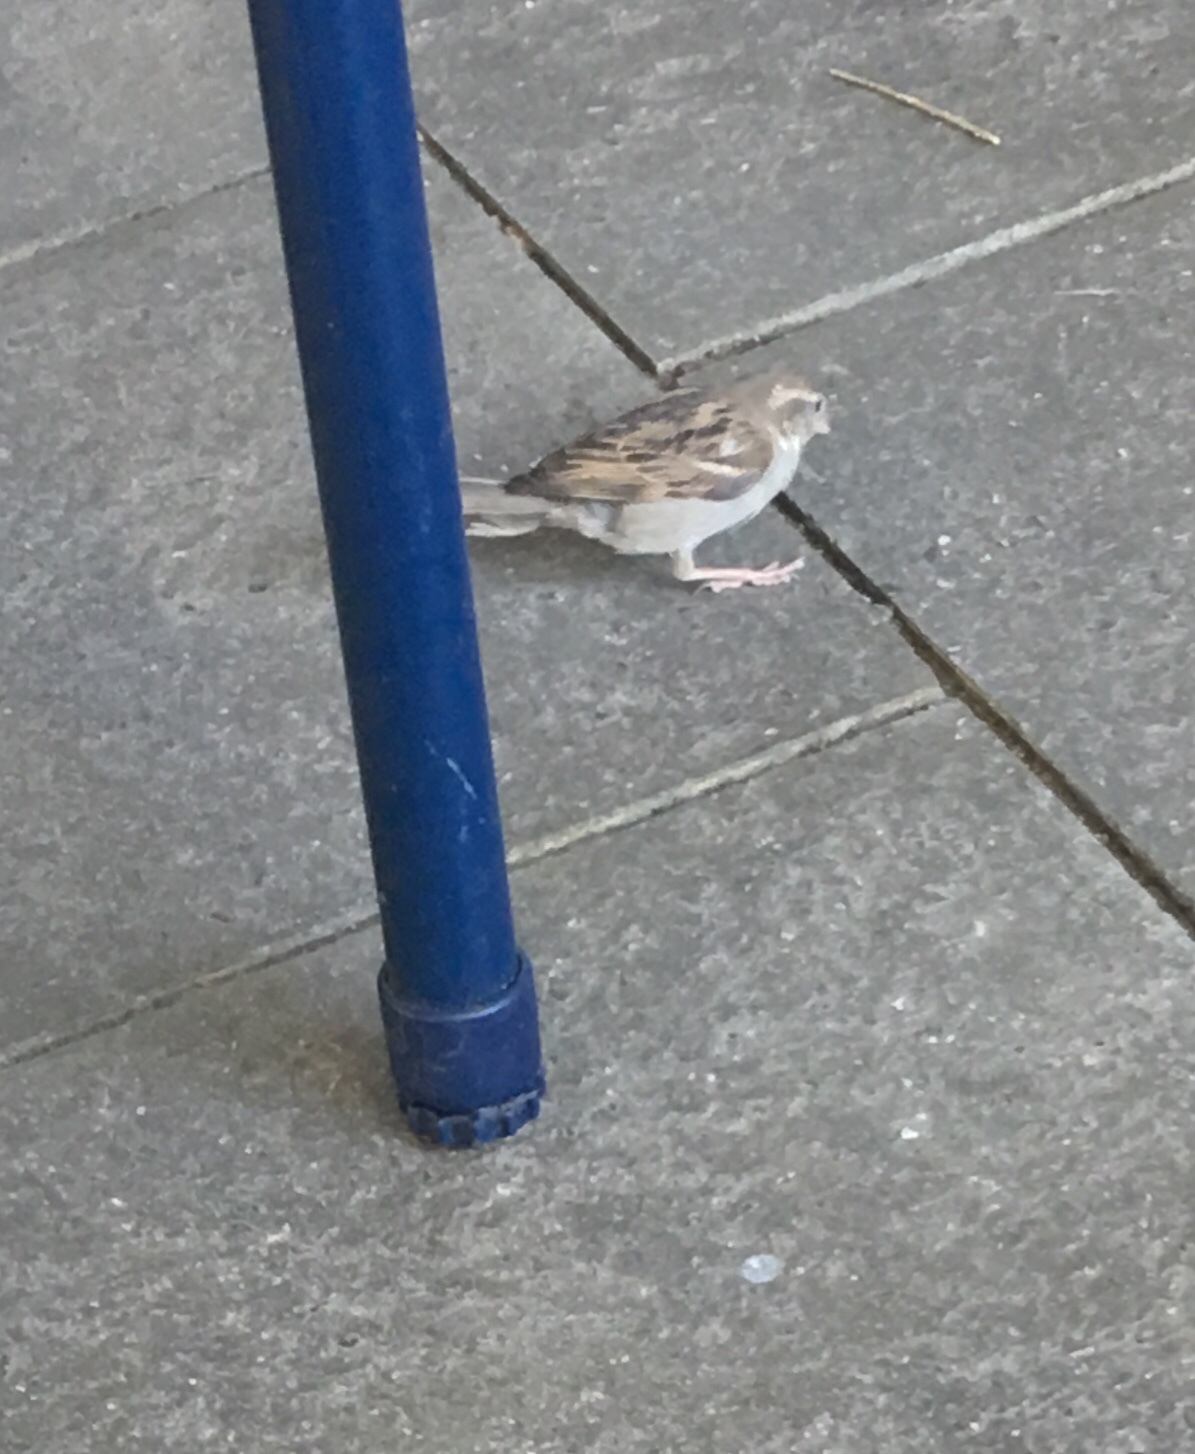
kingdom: Animalia
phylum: Chordata
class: Aves
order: Passeriformes
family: Passeridae
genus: Passer
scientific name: Passer domesticus
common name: House sparrow
